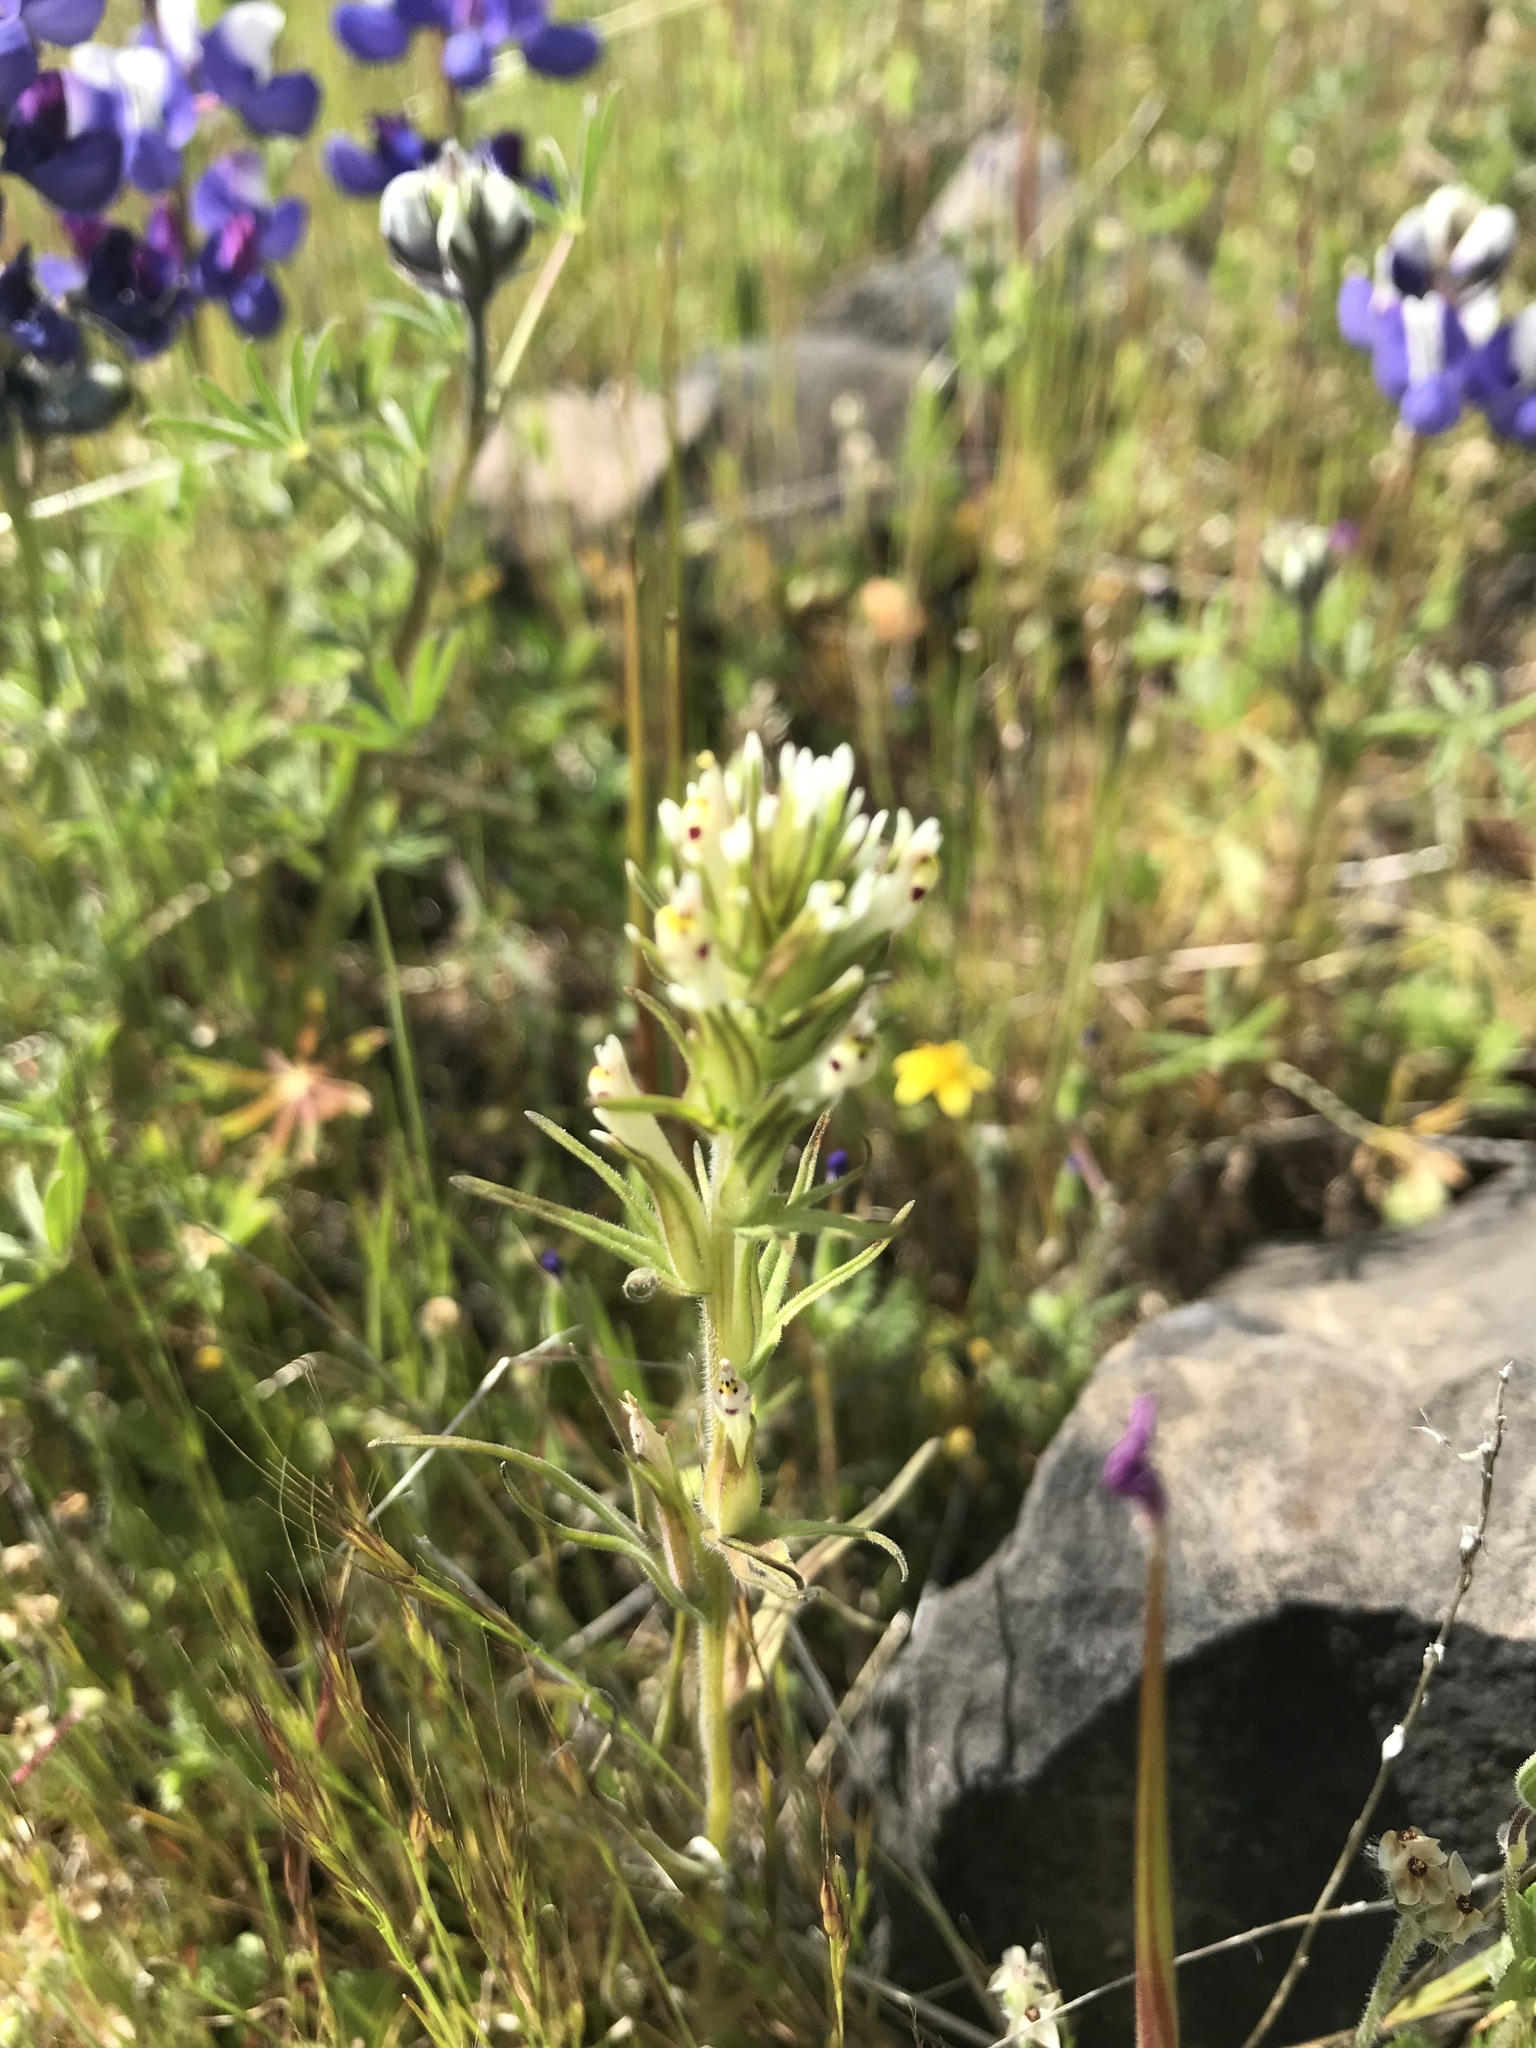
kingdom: Plantae
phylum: Tracheophyta
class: Magnoliopsida
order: Lamiales
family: Orobanchaceae
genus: Castilleja
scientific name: Castilleja attenuata
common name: Valley tassels
